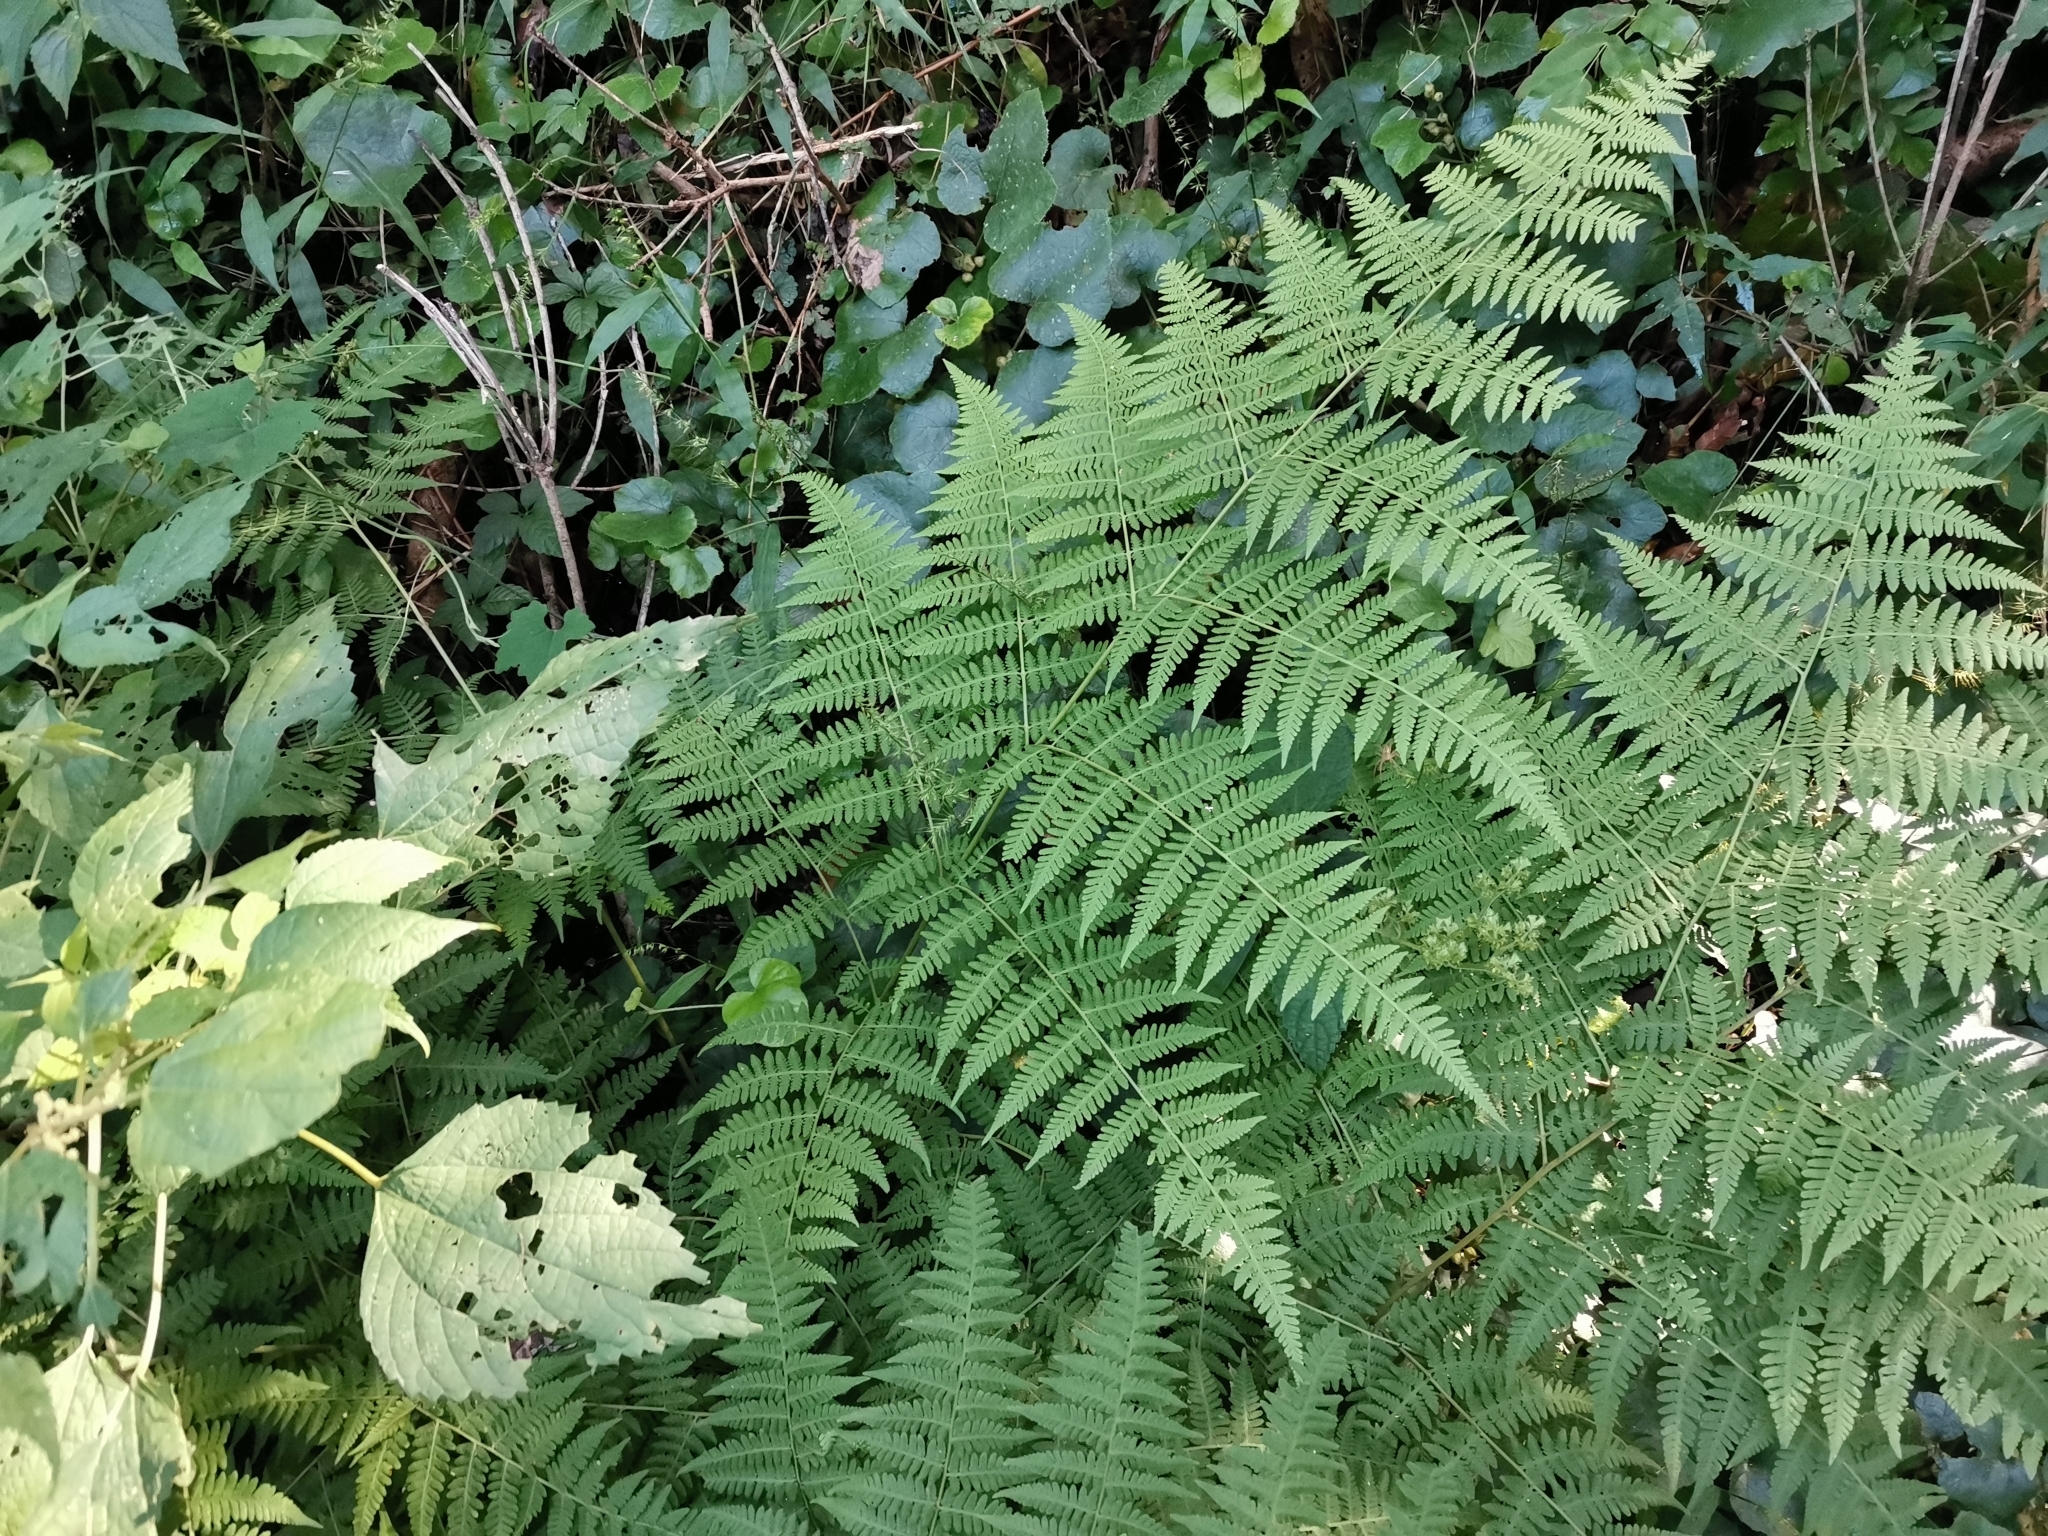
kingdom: Plantae
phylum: Tracheophyta
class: Polypodiopsida
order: Polypodiales
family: Thelypteridaceae
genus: Macrothelypteris
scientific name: Macrothelypteris viridifrons
